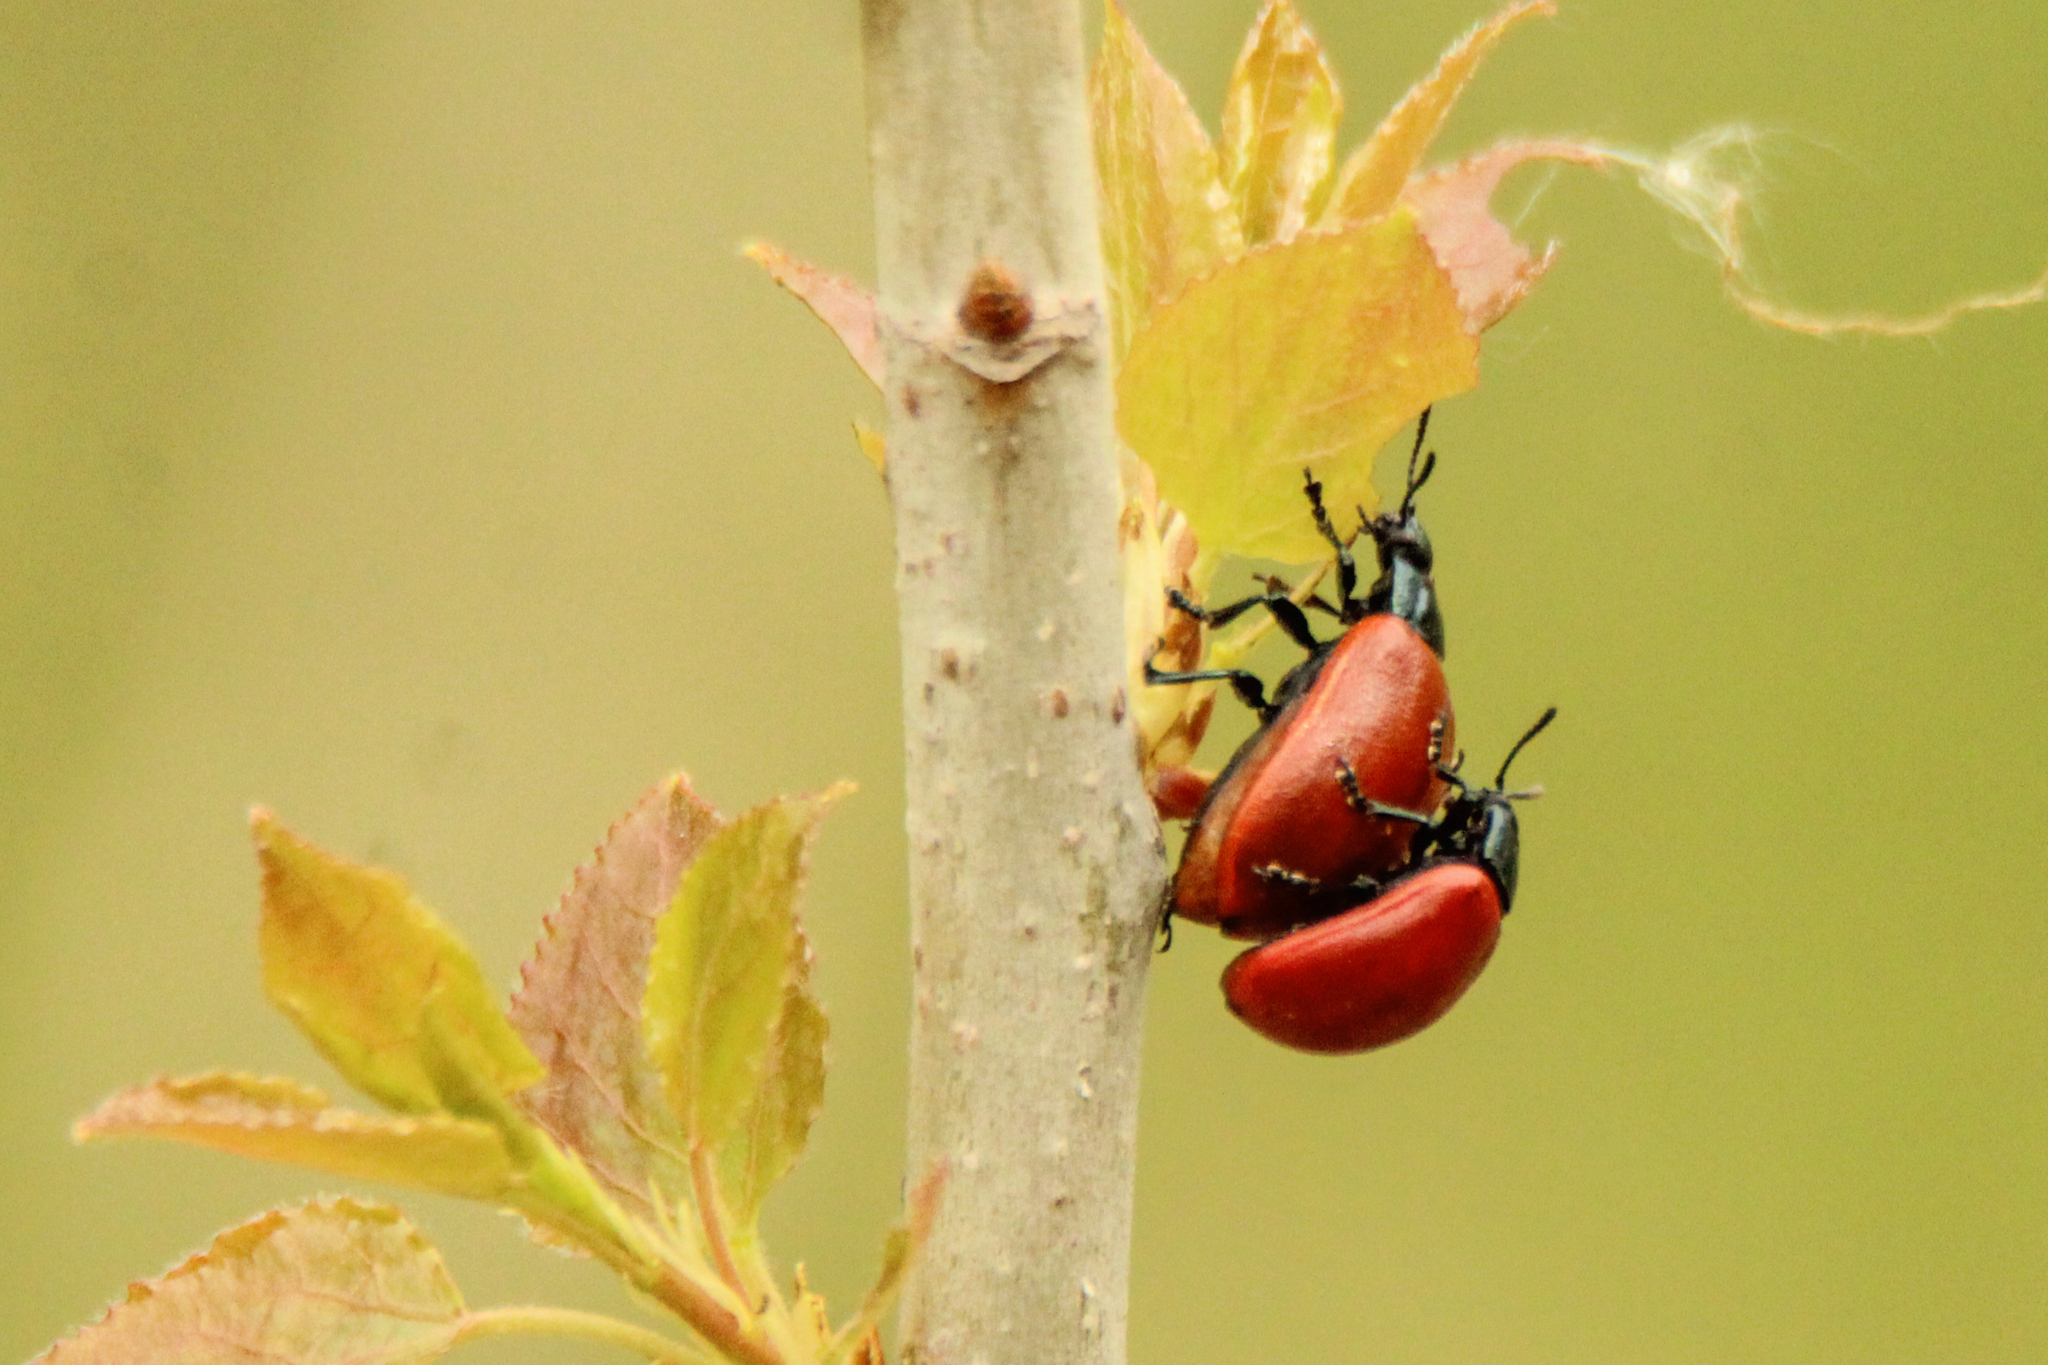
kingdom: Animalia
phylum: Arthropoda
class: Insecta
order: Coleoptera
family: Chrysomelidae
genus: Chrysomela
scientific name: Chrysomela populi
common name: Red poplar leaf beetle
